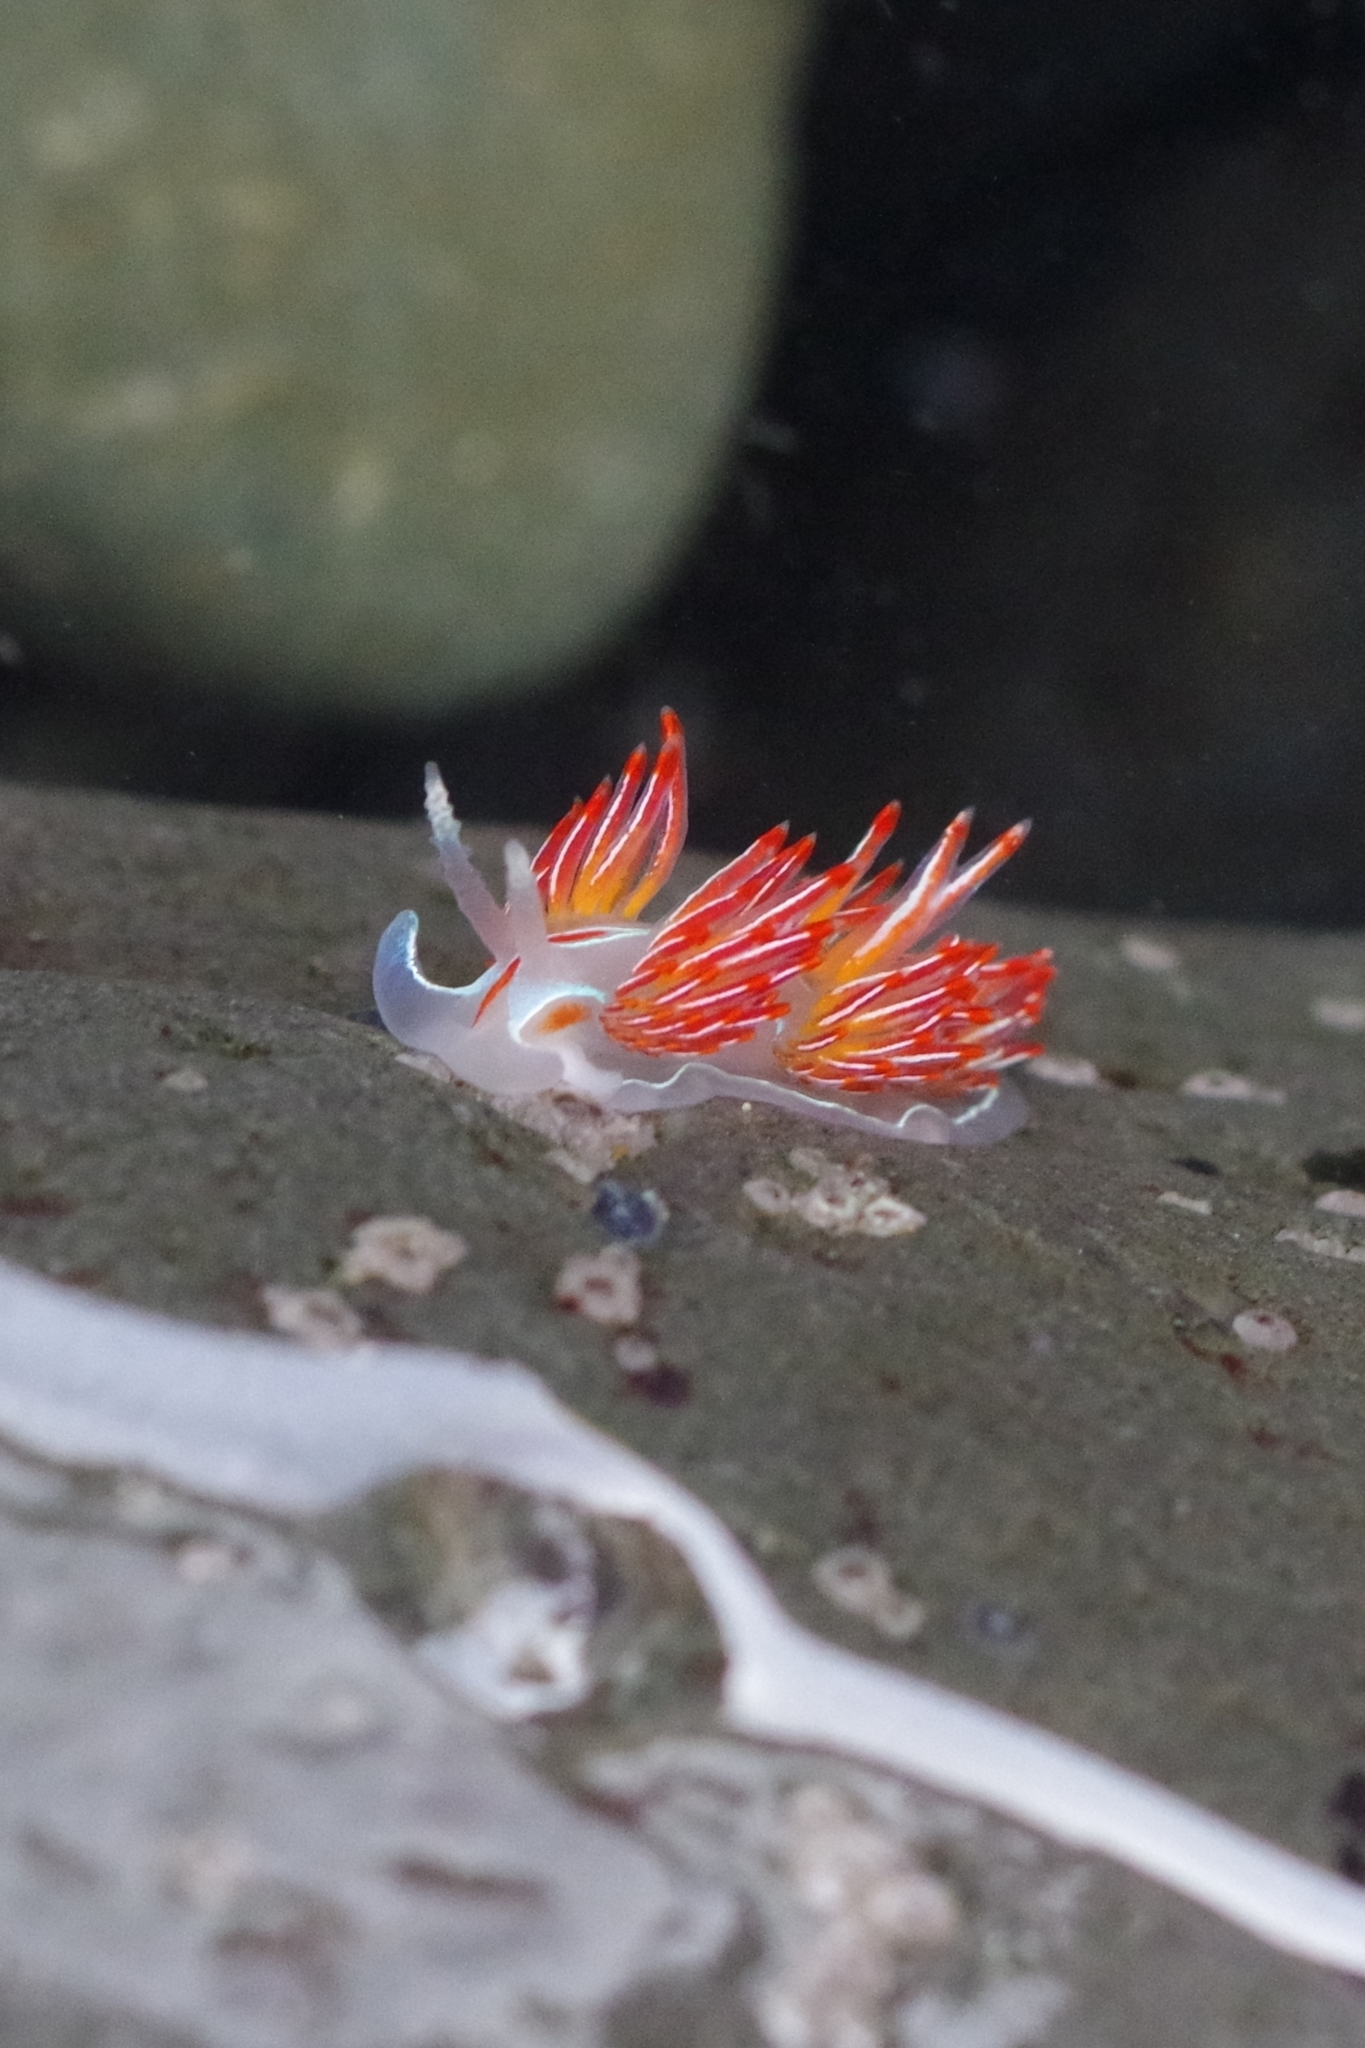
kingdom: Animalia
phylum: Mollusca
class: Gastropoda
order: Nudibranchia
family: Myrrhinidae
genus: Hermissenda
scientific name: Hermissenda crassicornis
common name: Hermissenda
